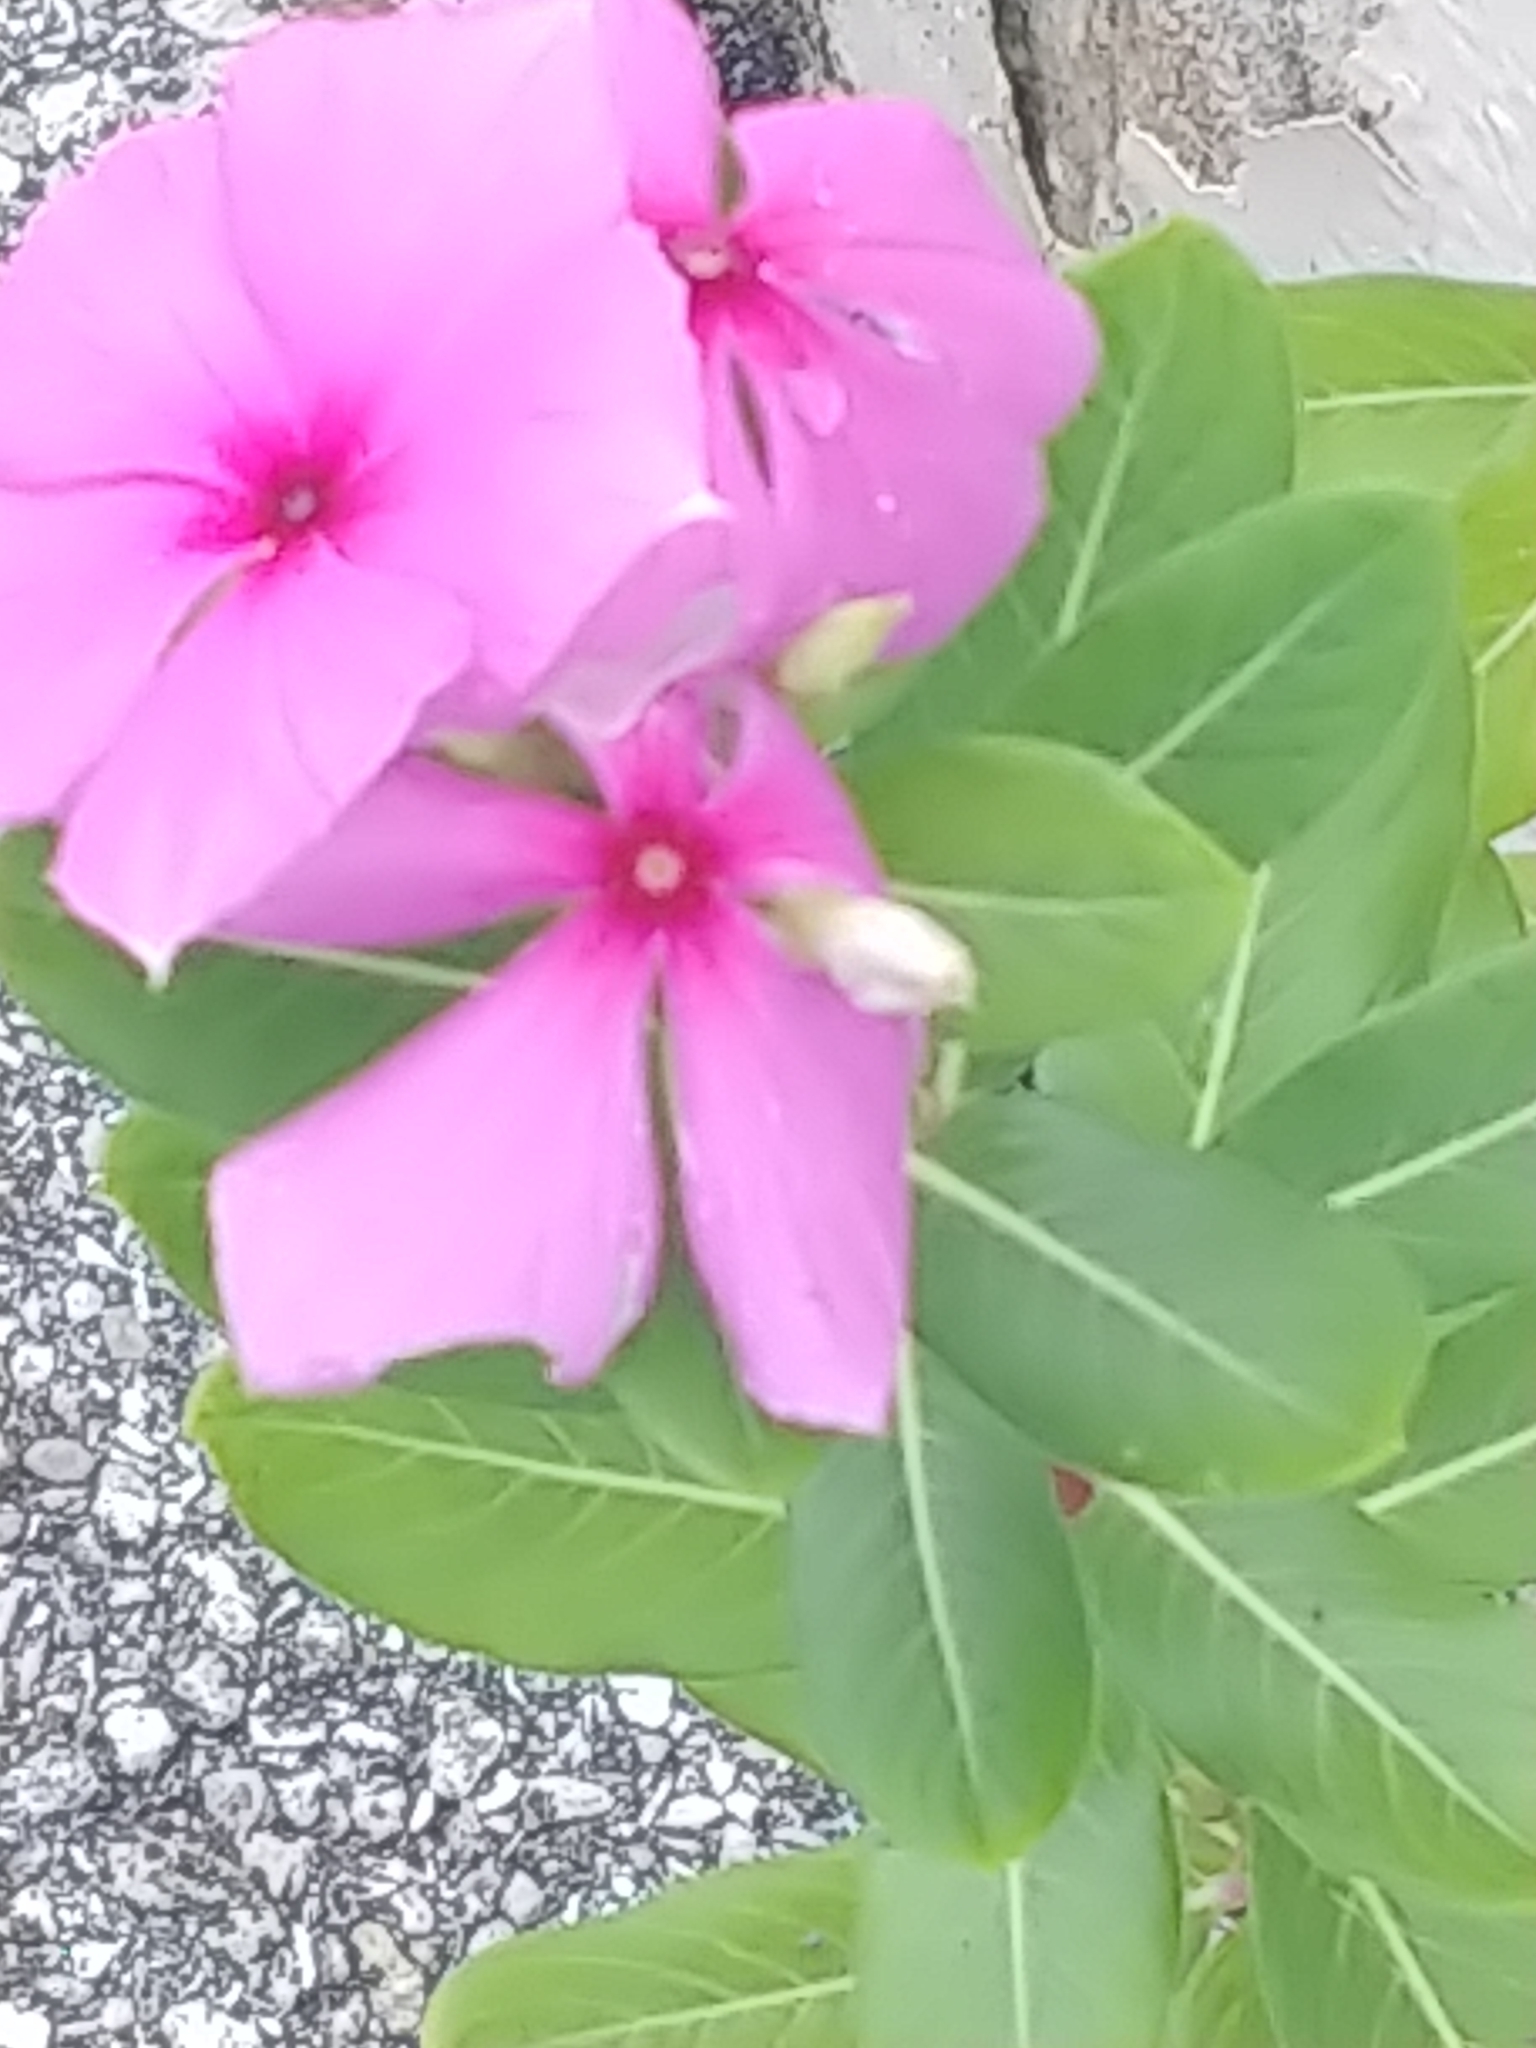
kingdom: Plantae
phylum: Tracheophyta
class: Magnoliopsida
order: Gentianales
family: Apocynaceae
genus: Catharanthus
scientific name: Catharanthus roseus
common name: Madagascar periwinkle
